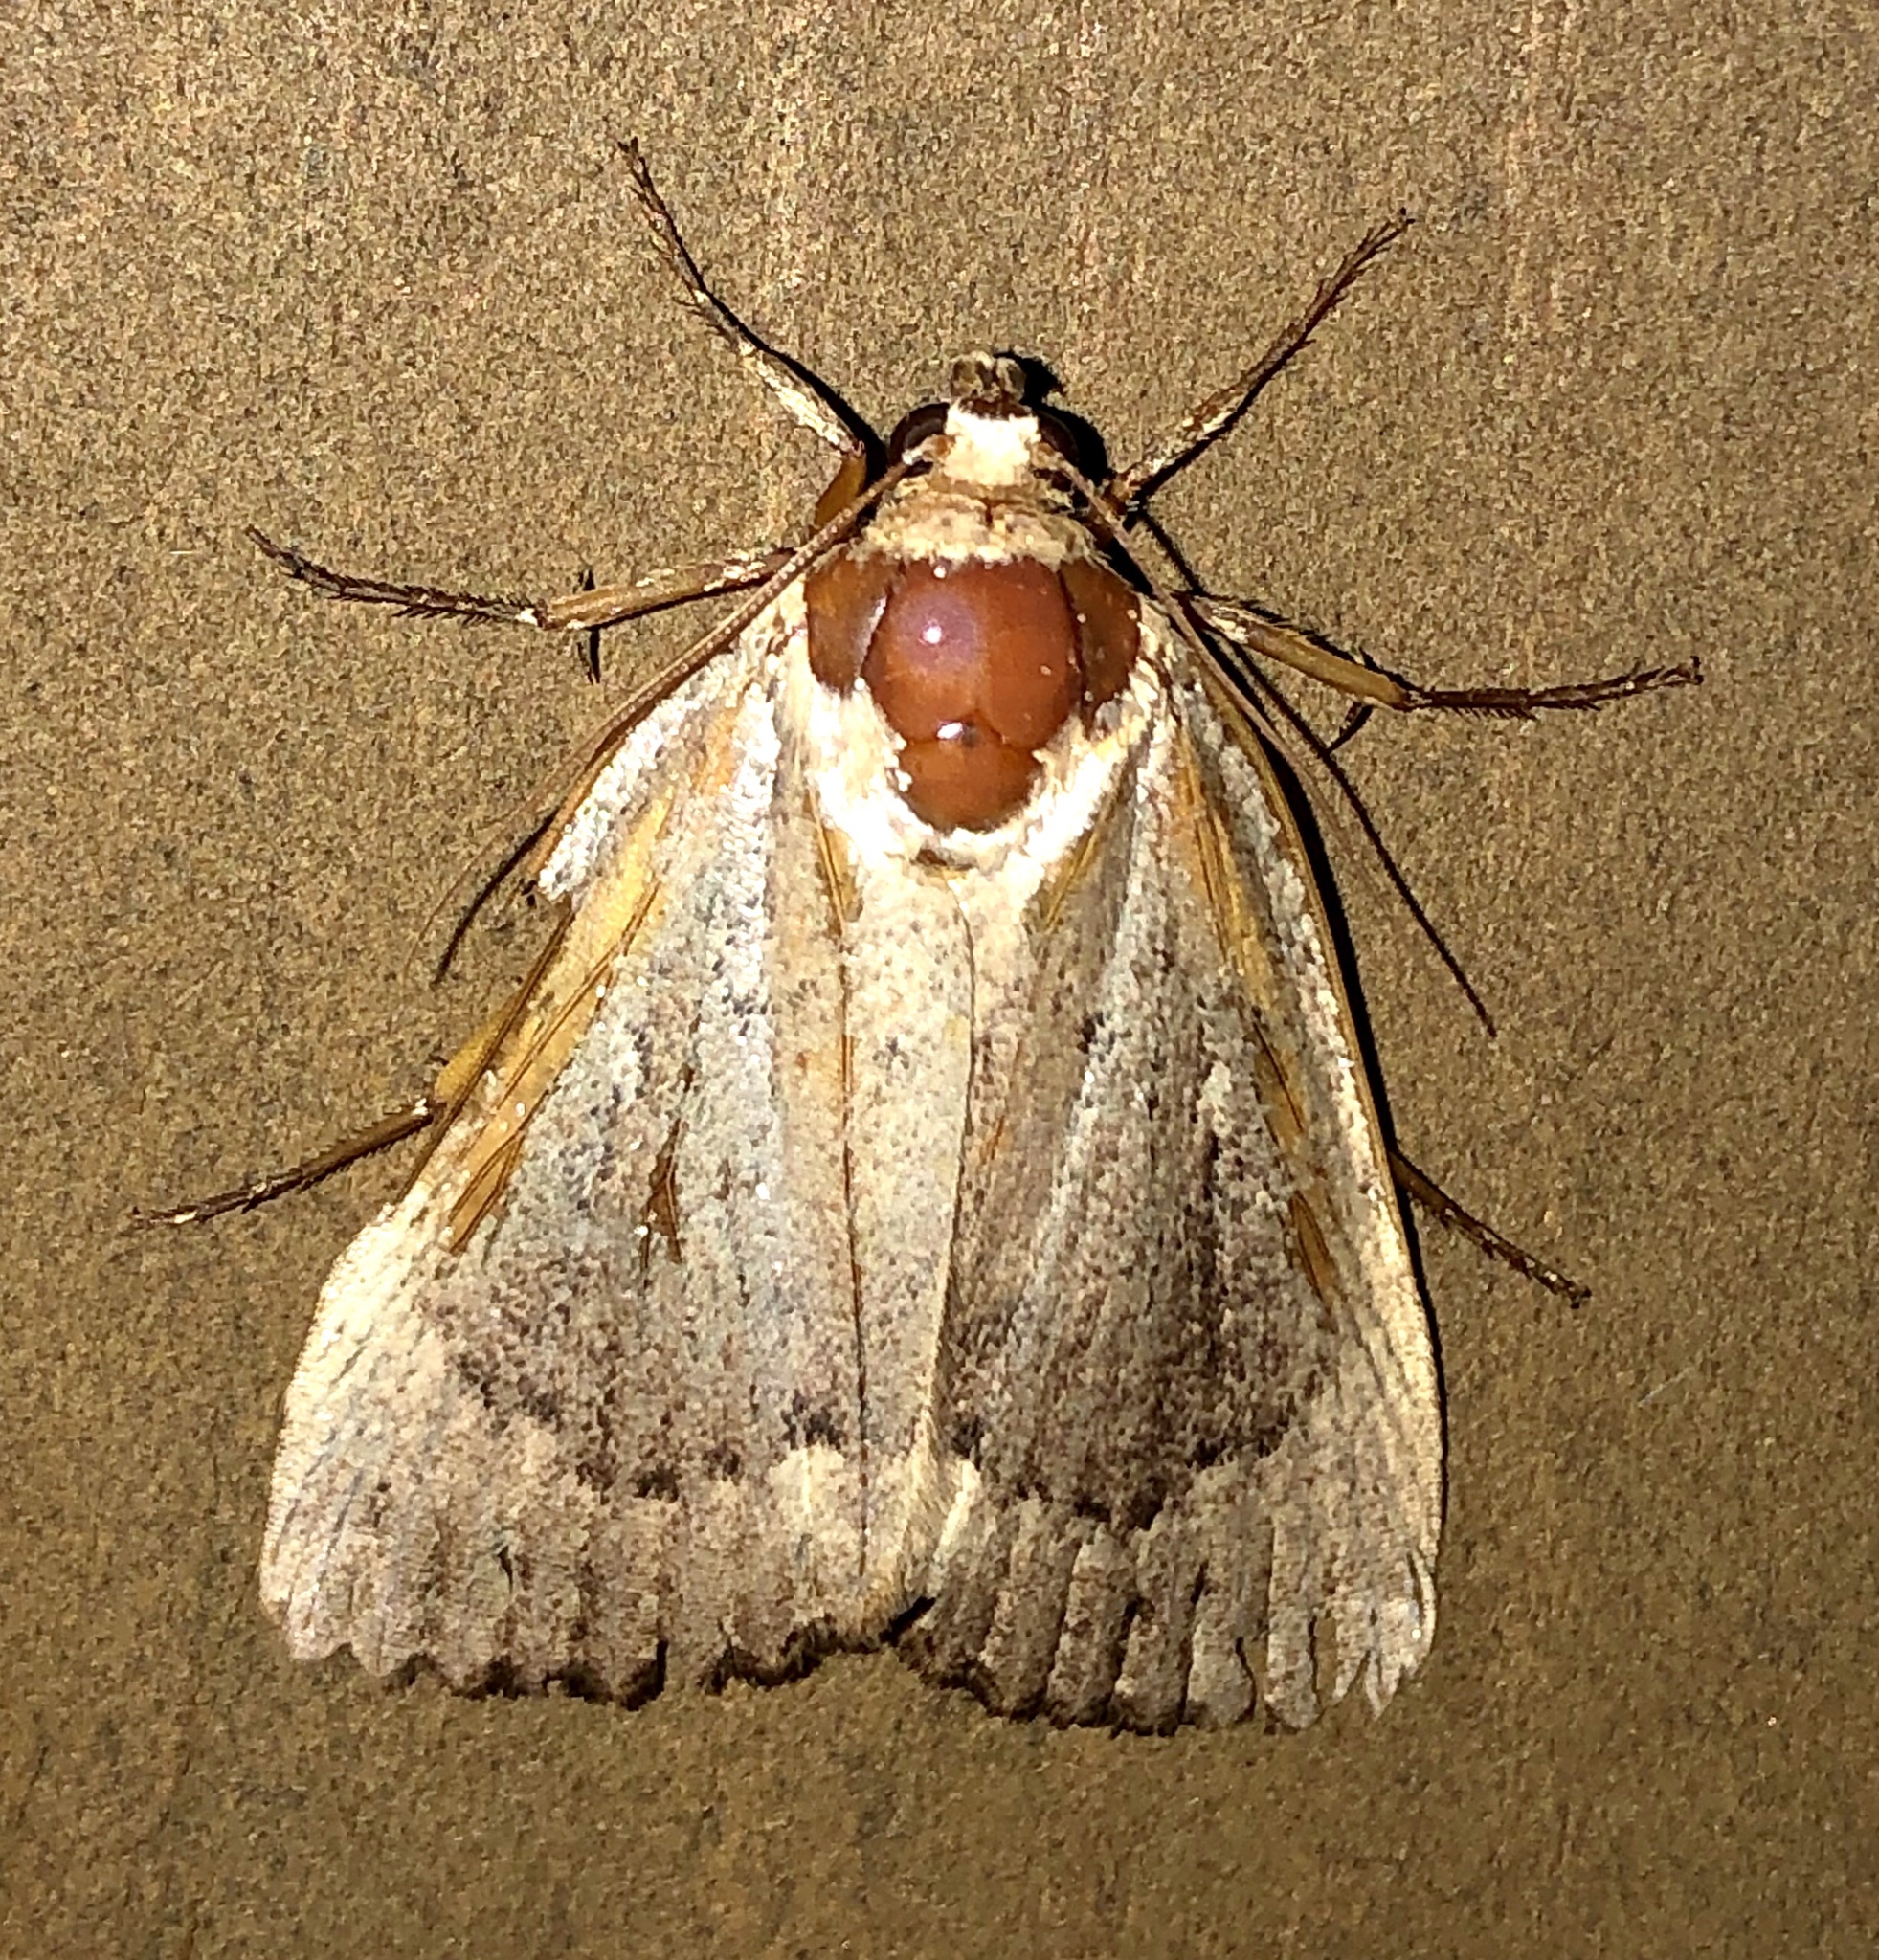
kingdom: Animalia
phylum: Arthropoda
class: Insecta
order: Lepidoptera
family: Noctuidae
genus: Amphipyra
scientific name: Amphipyra pyramidoides
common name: American copper underwing
